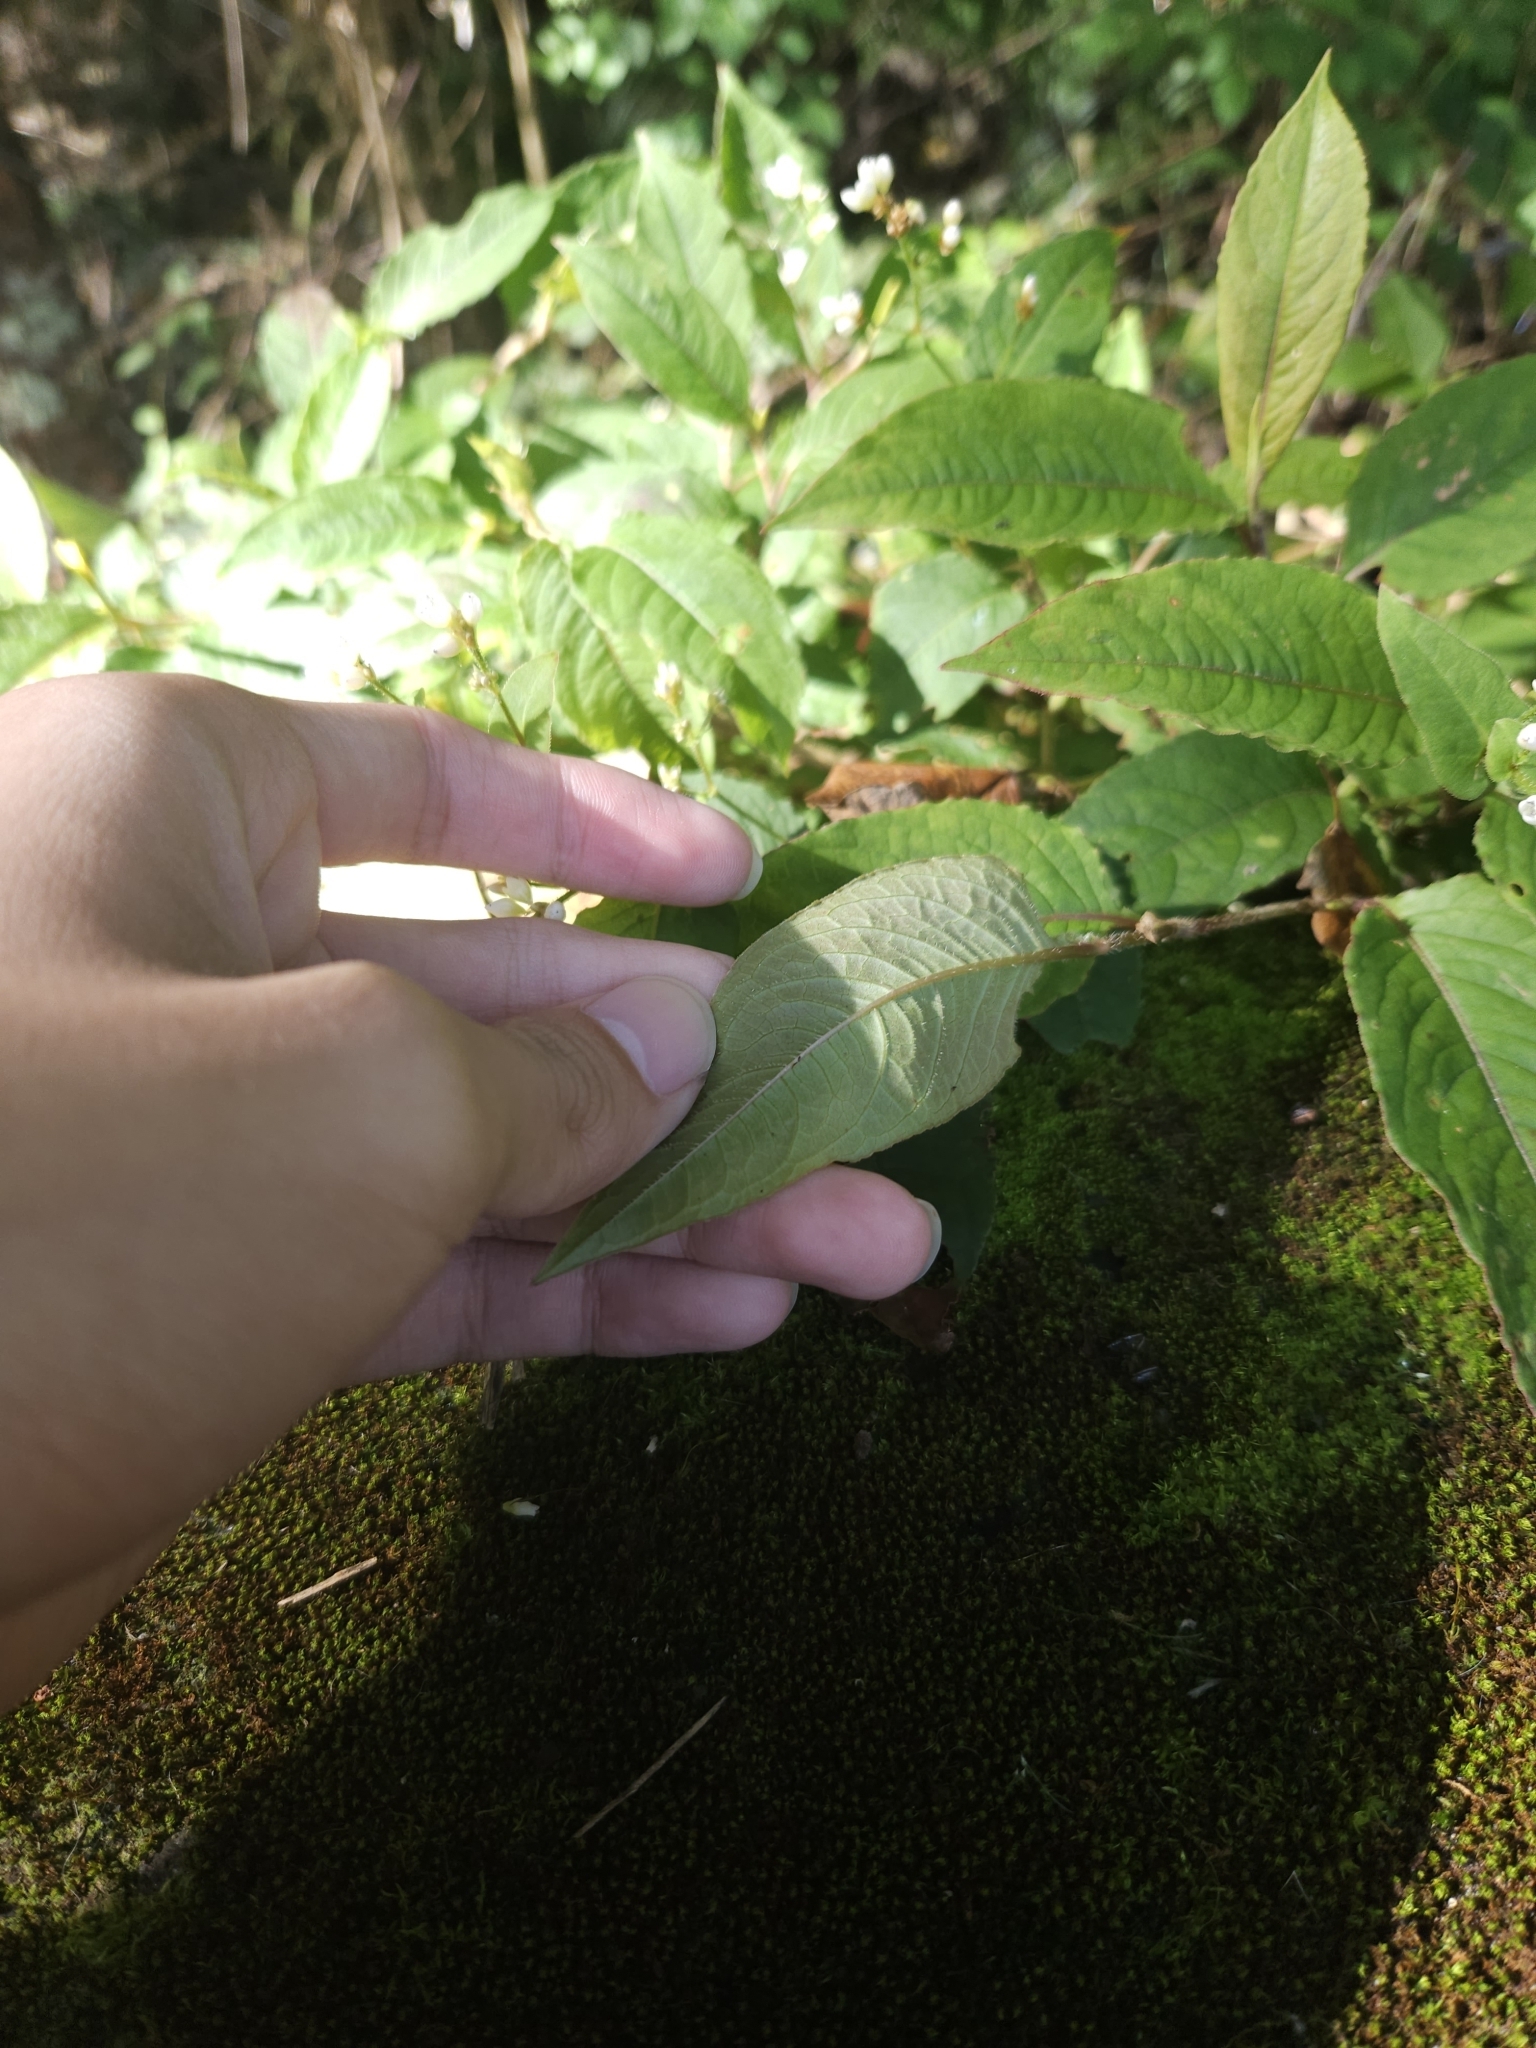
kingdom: Plantae
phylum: Tracheophyta
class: Magnoliopsida
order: Caryophyllales
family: Polygonaceae
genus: Persicaria
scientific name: Persicaria chinensis
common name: Chinese knotweed
